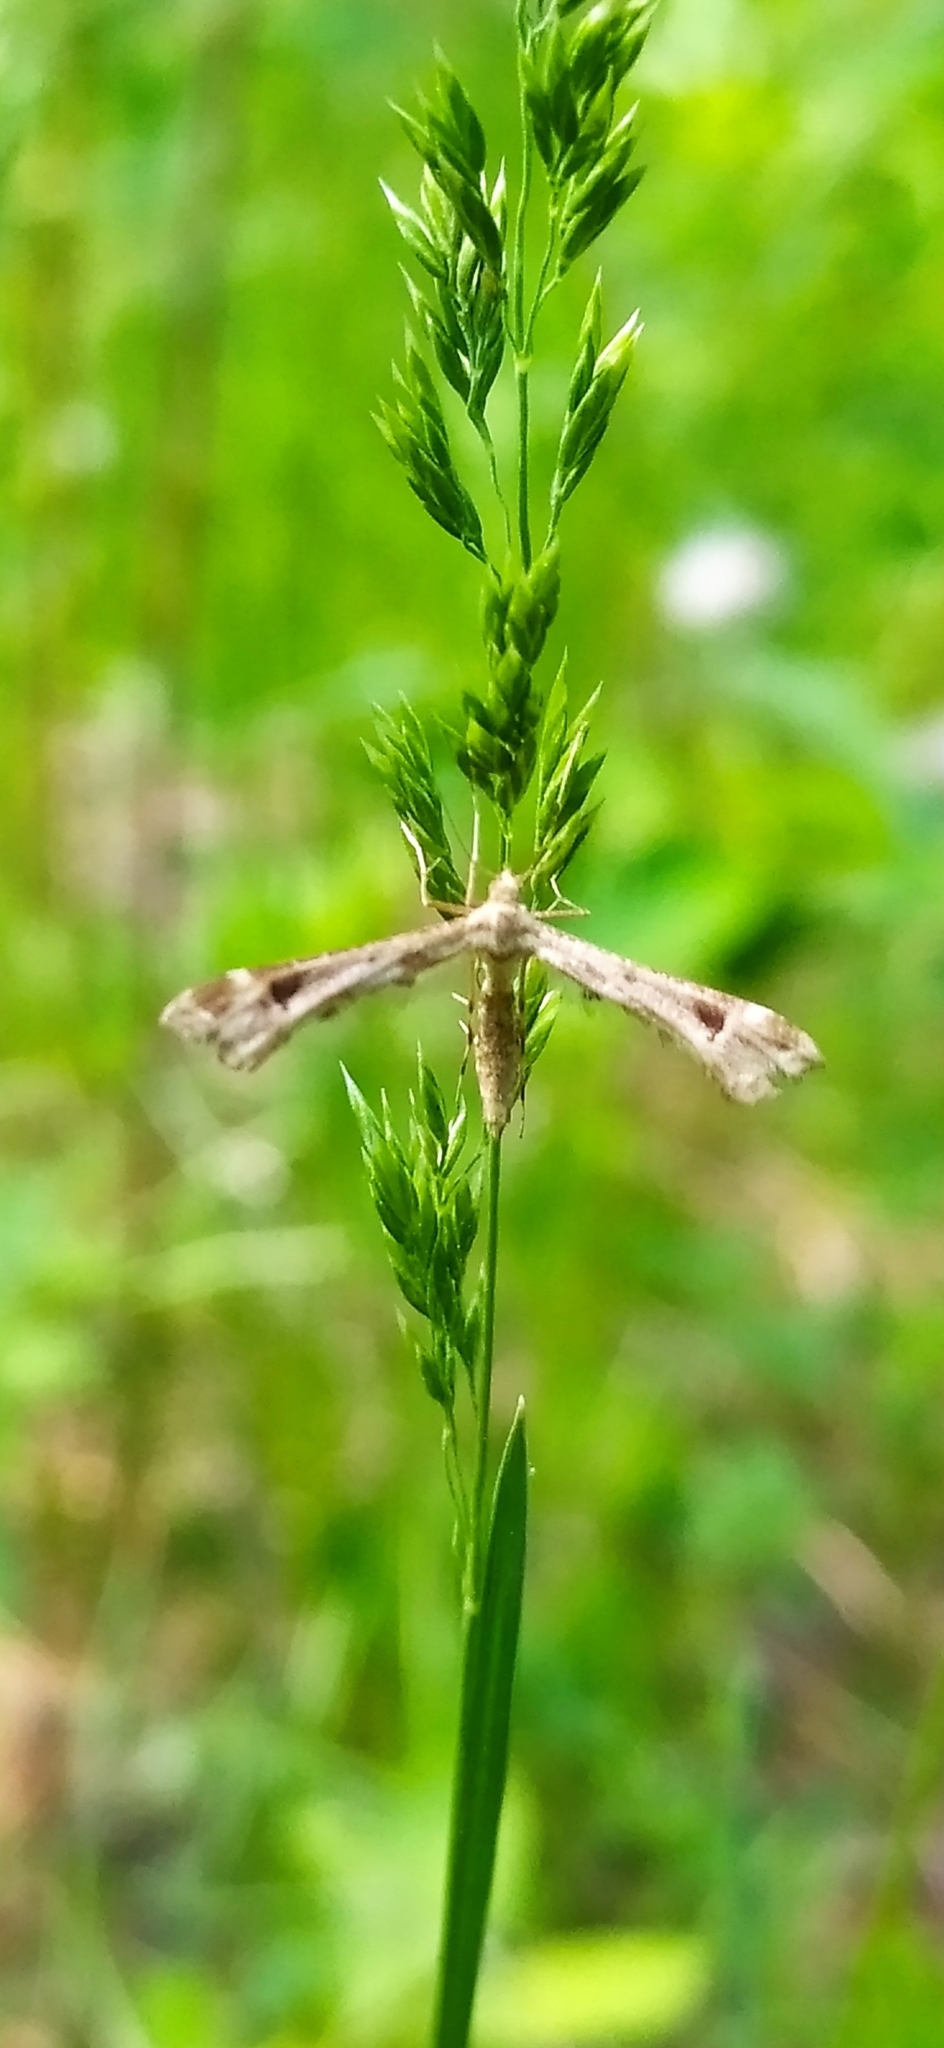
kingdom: Animalia
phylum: Arthropoda
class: Insecta
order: Lepidoptera
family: Pterophoridae
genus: Platyptilia
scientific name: Platyptilia gonodactyla
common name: Triangle plume
